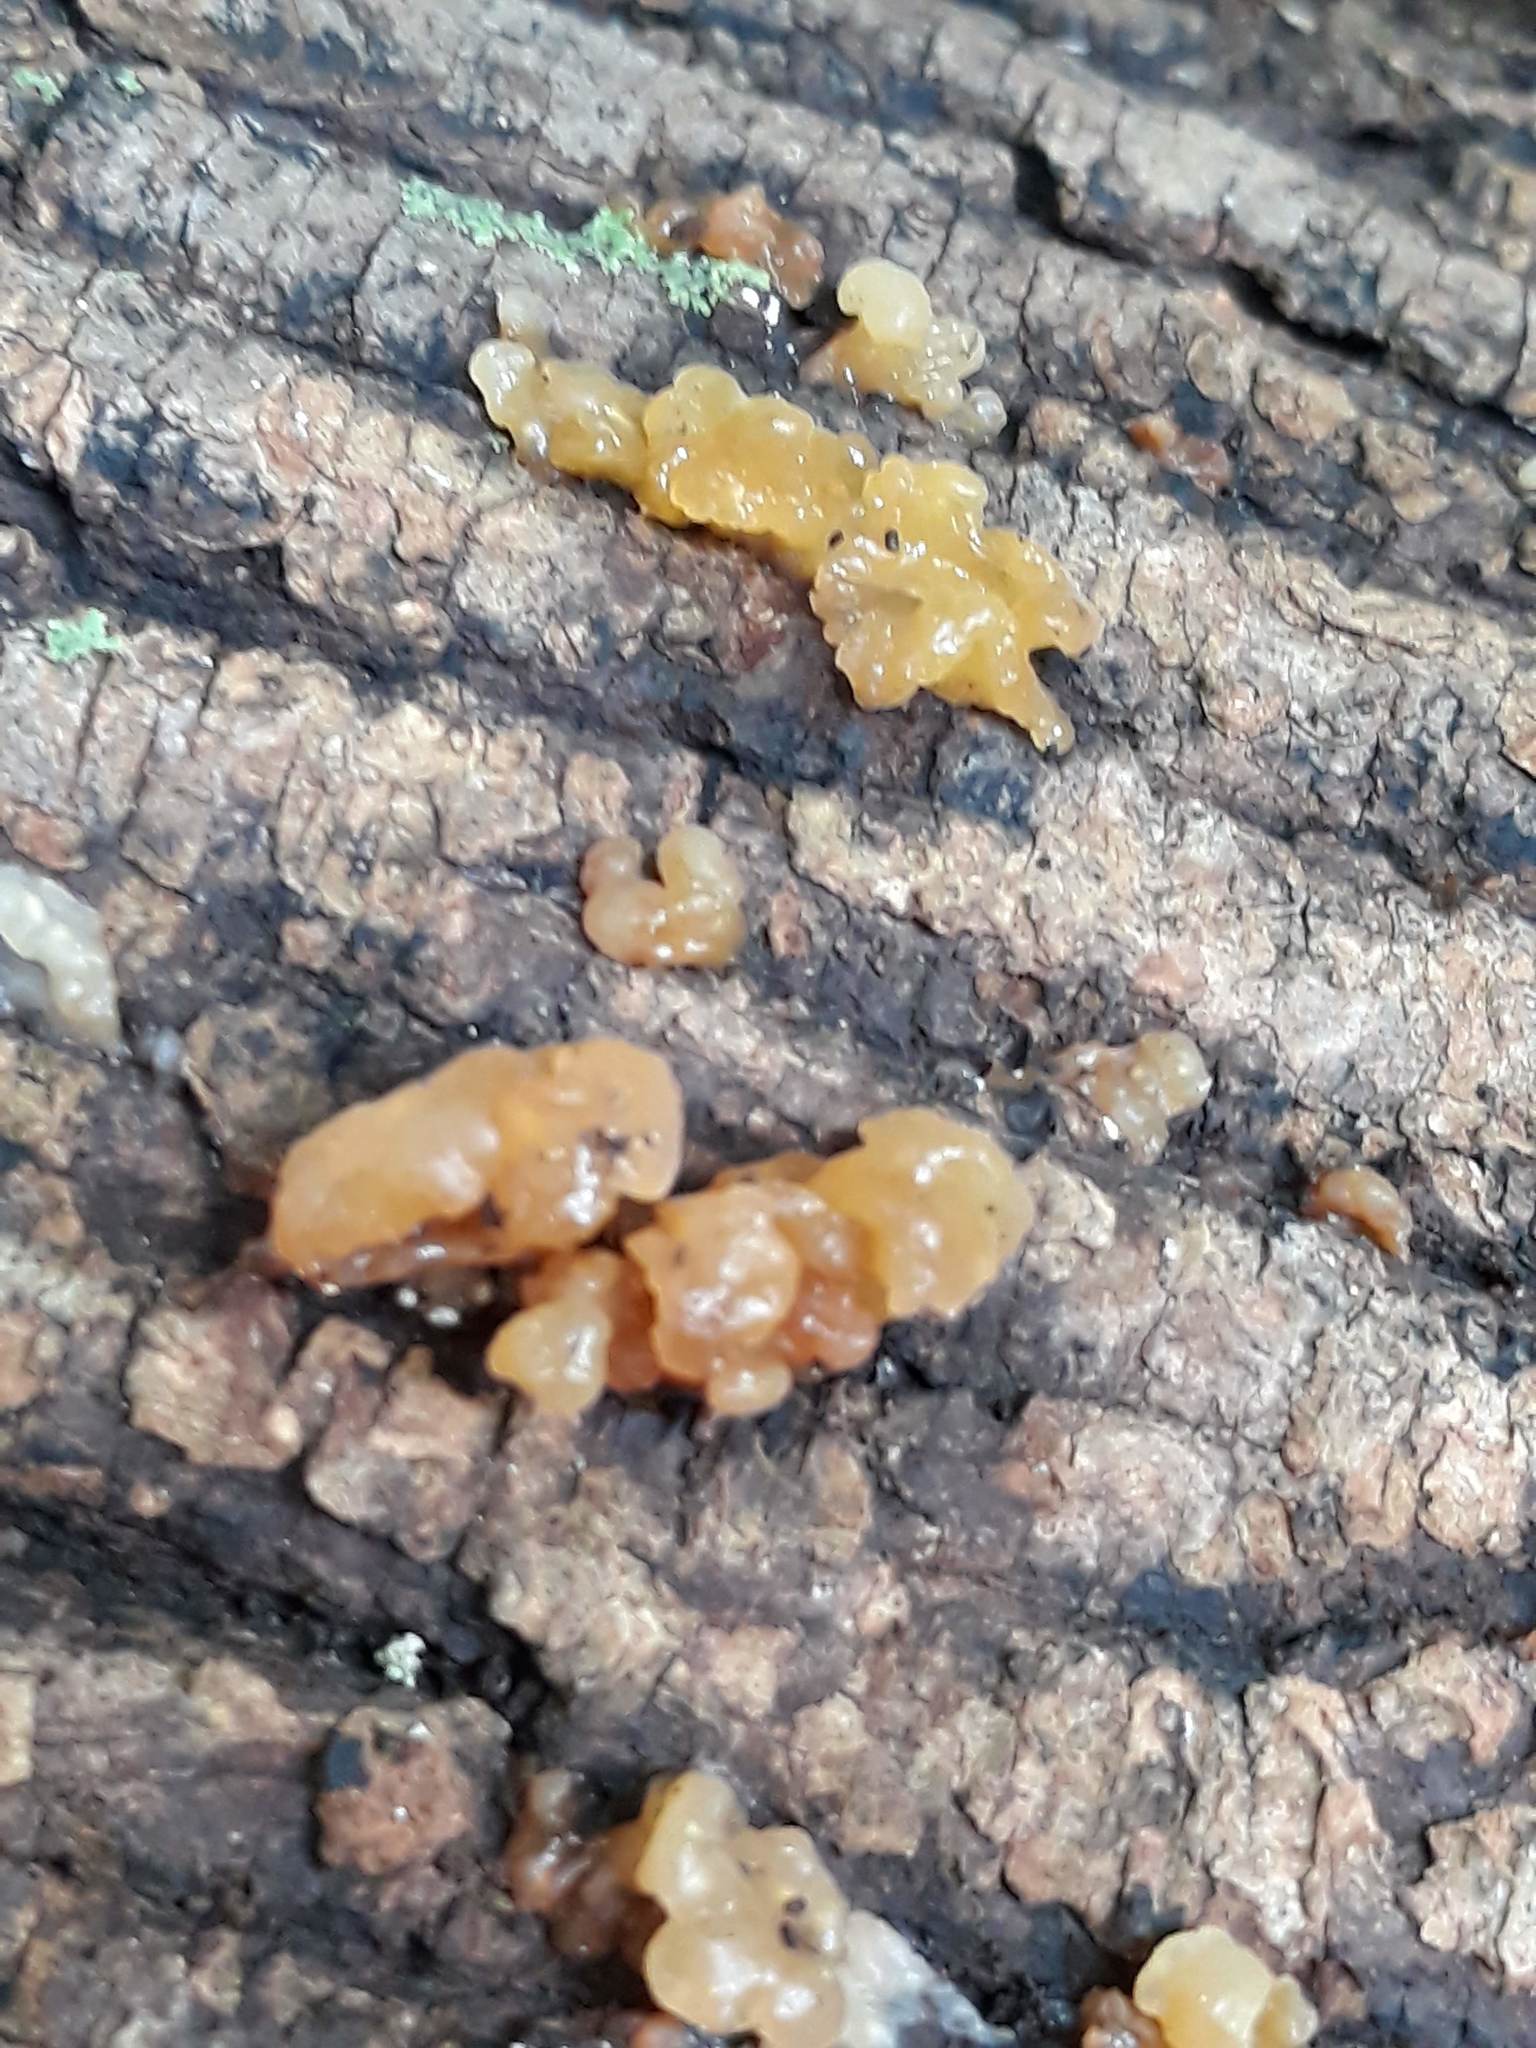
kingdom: Fungi
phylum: Basidiomycota
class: Agaricomycetes
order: Auriculariales
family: Hyaloriaceae
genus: Myxarium
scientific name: Myxarium nucleatum
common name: Crystal brain fungus
